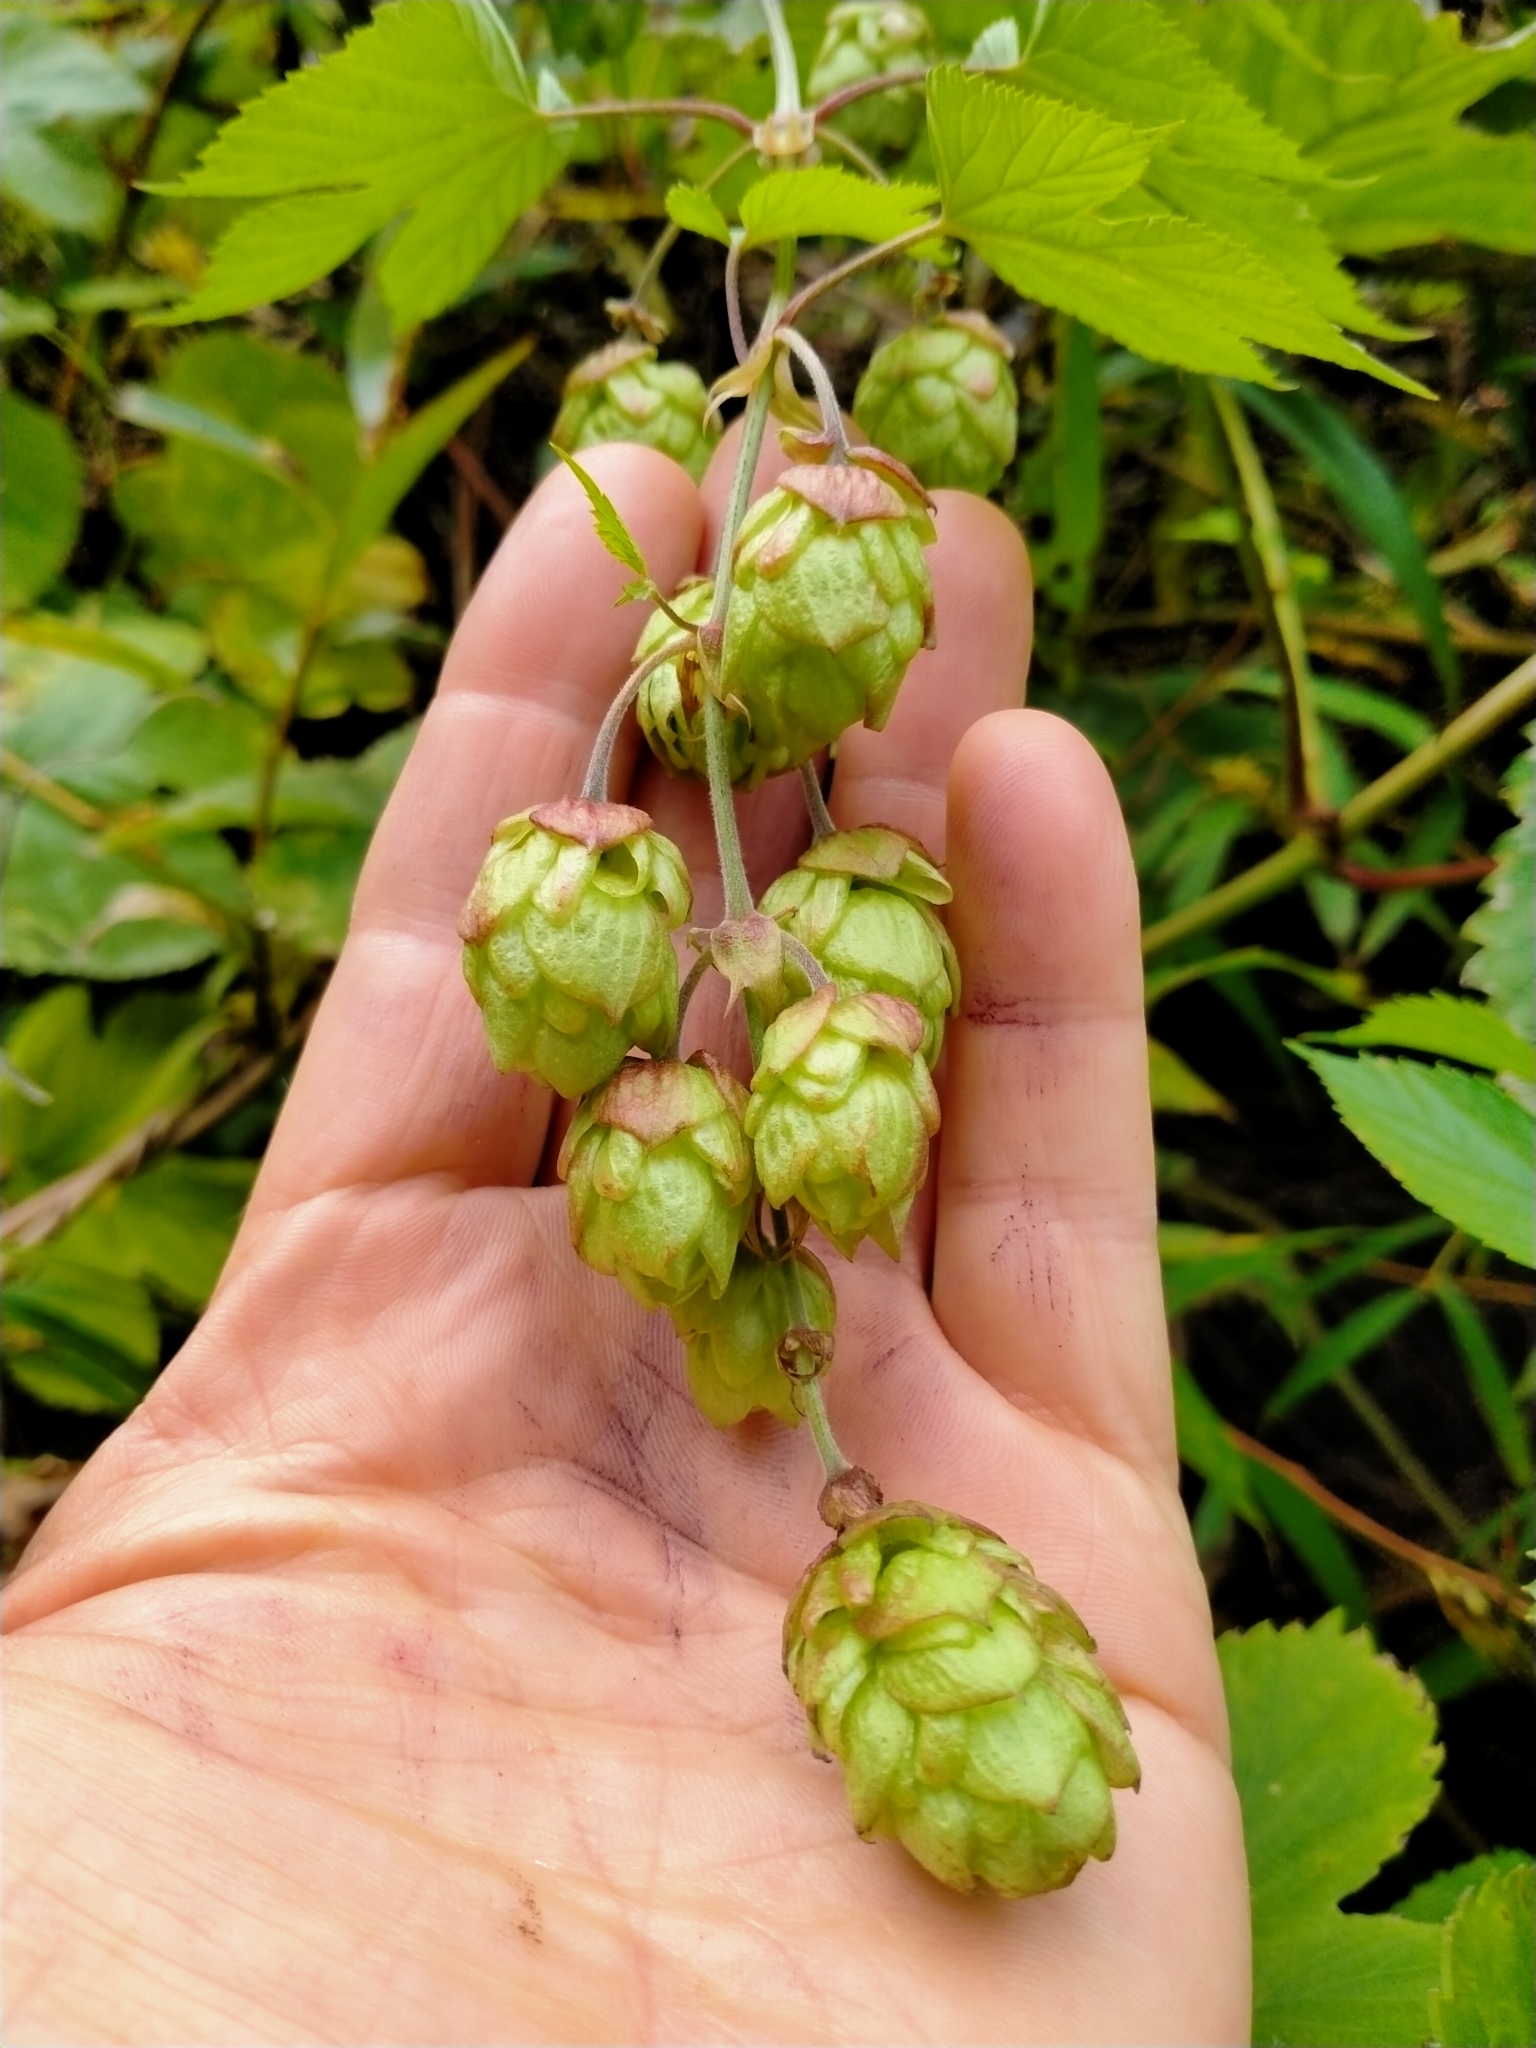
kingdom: Plantae
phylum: Tracheophyta
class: Magnoliopsida
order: Rosales
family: Cannabaceae
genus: Humulus
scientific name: Humulus lupulus
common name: Hop
